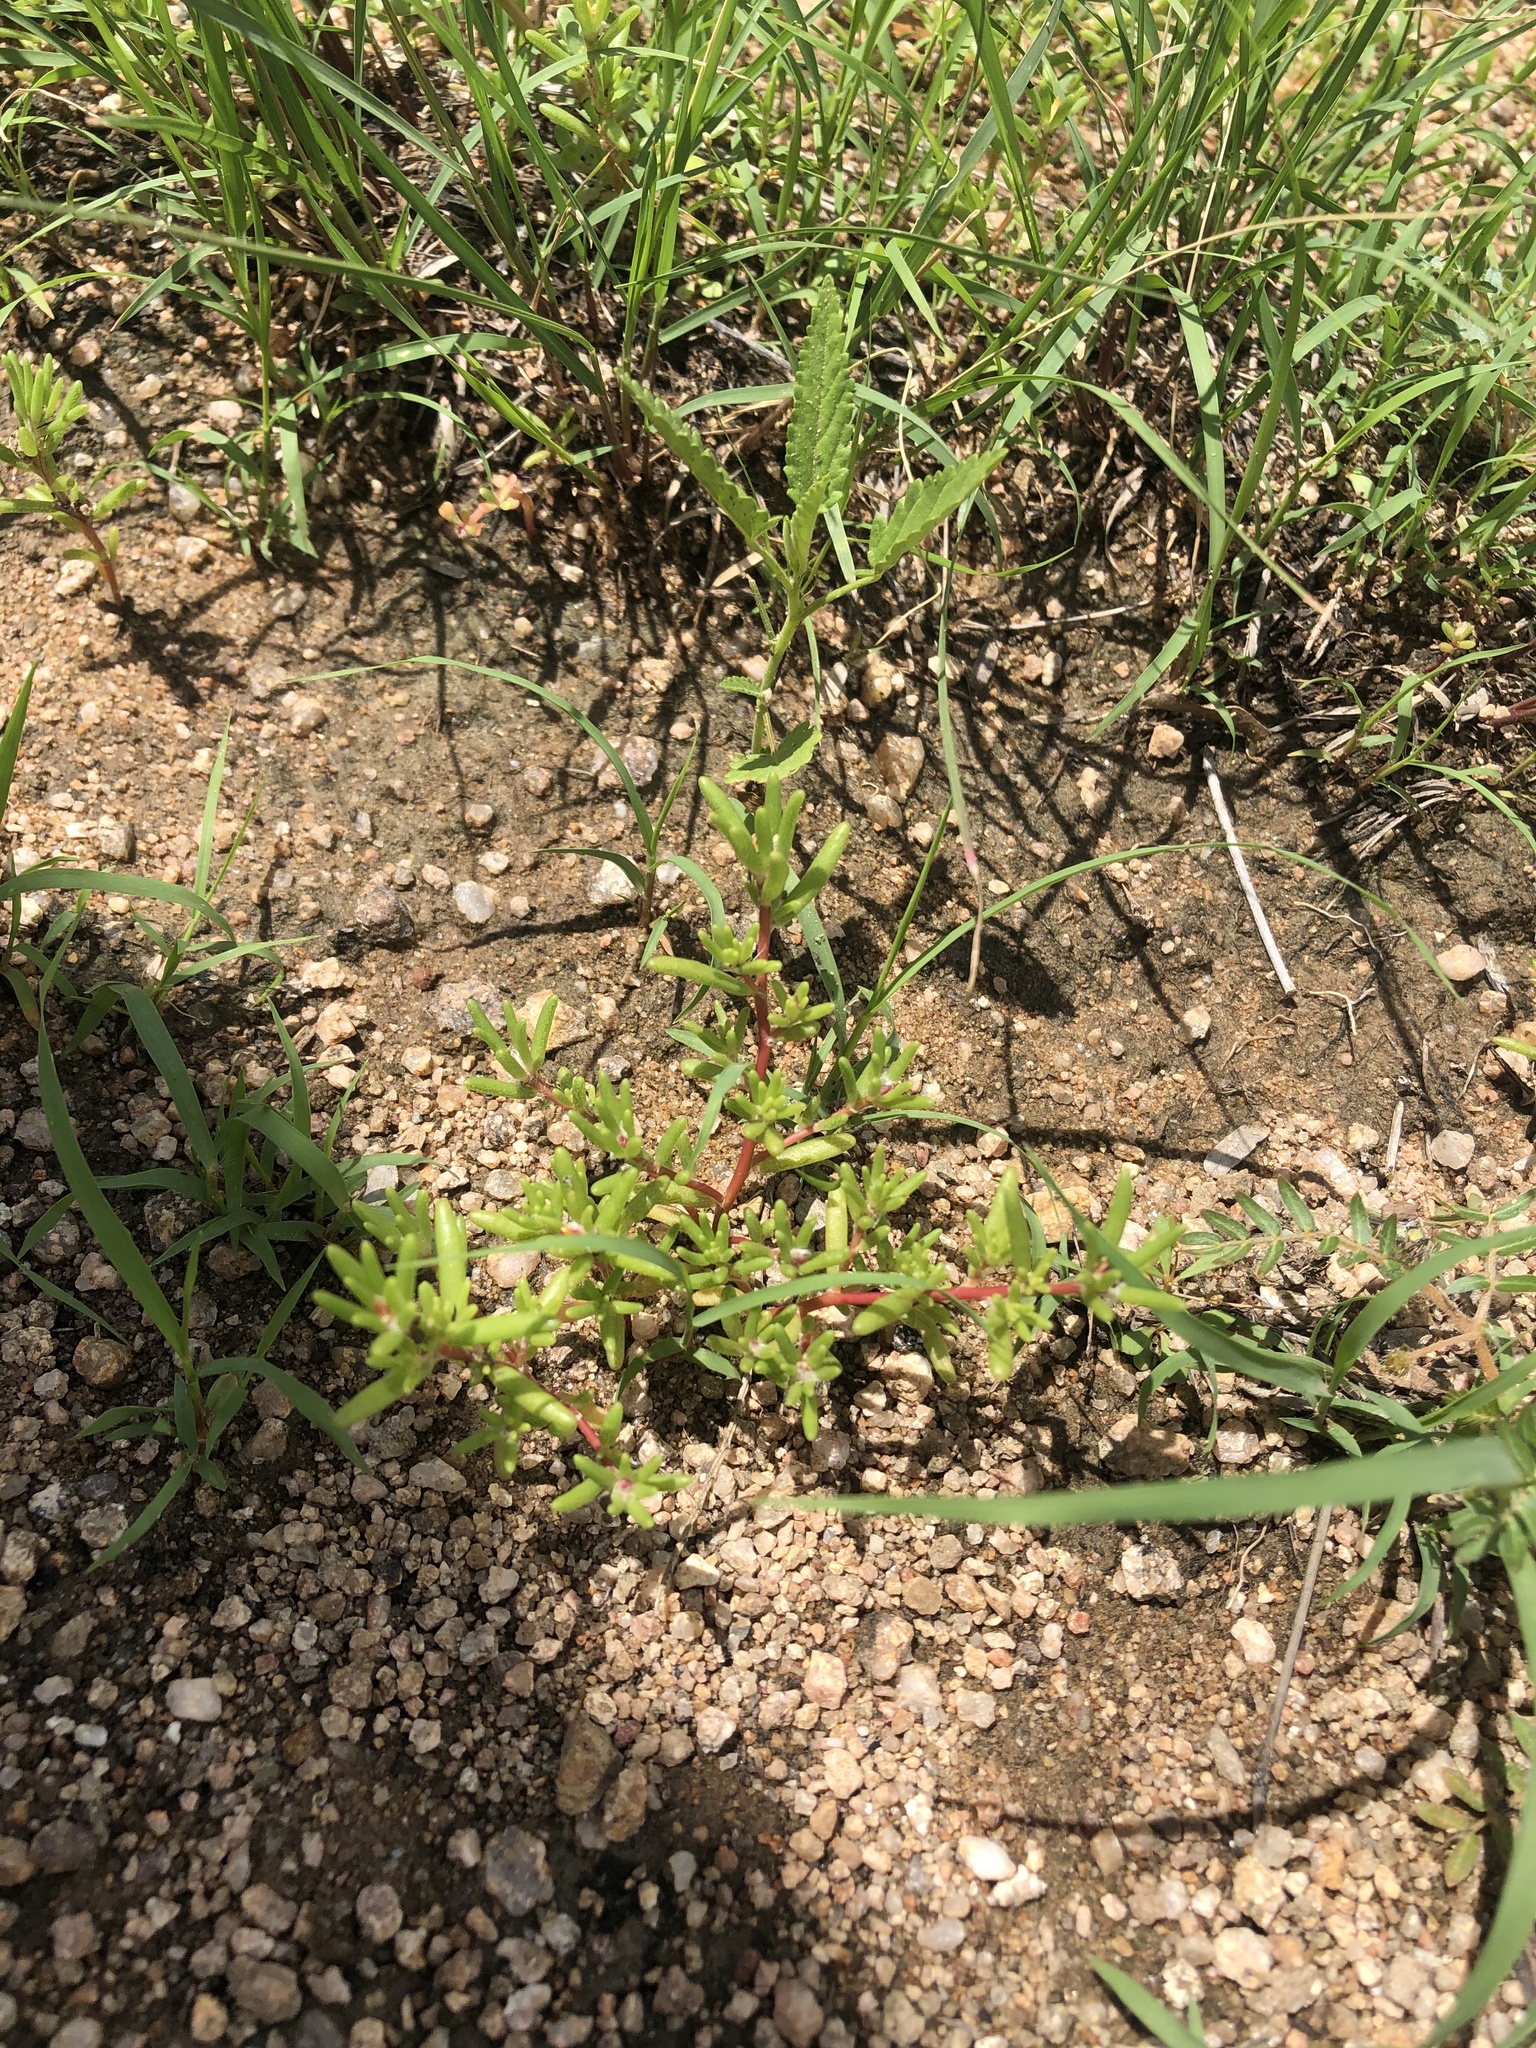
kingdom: Plantae
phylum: Tracheophyta
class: Magnoliopsida
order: Caryophyllales
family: Portulacaceae
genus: Portulaca
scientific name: Portulaca pilosa
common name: Kiss me quick
